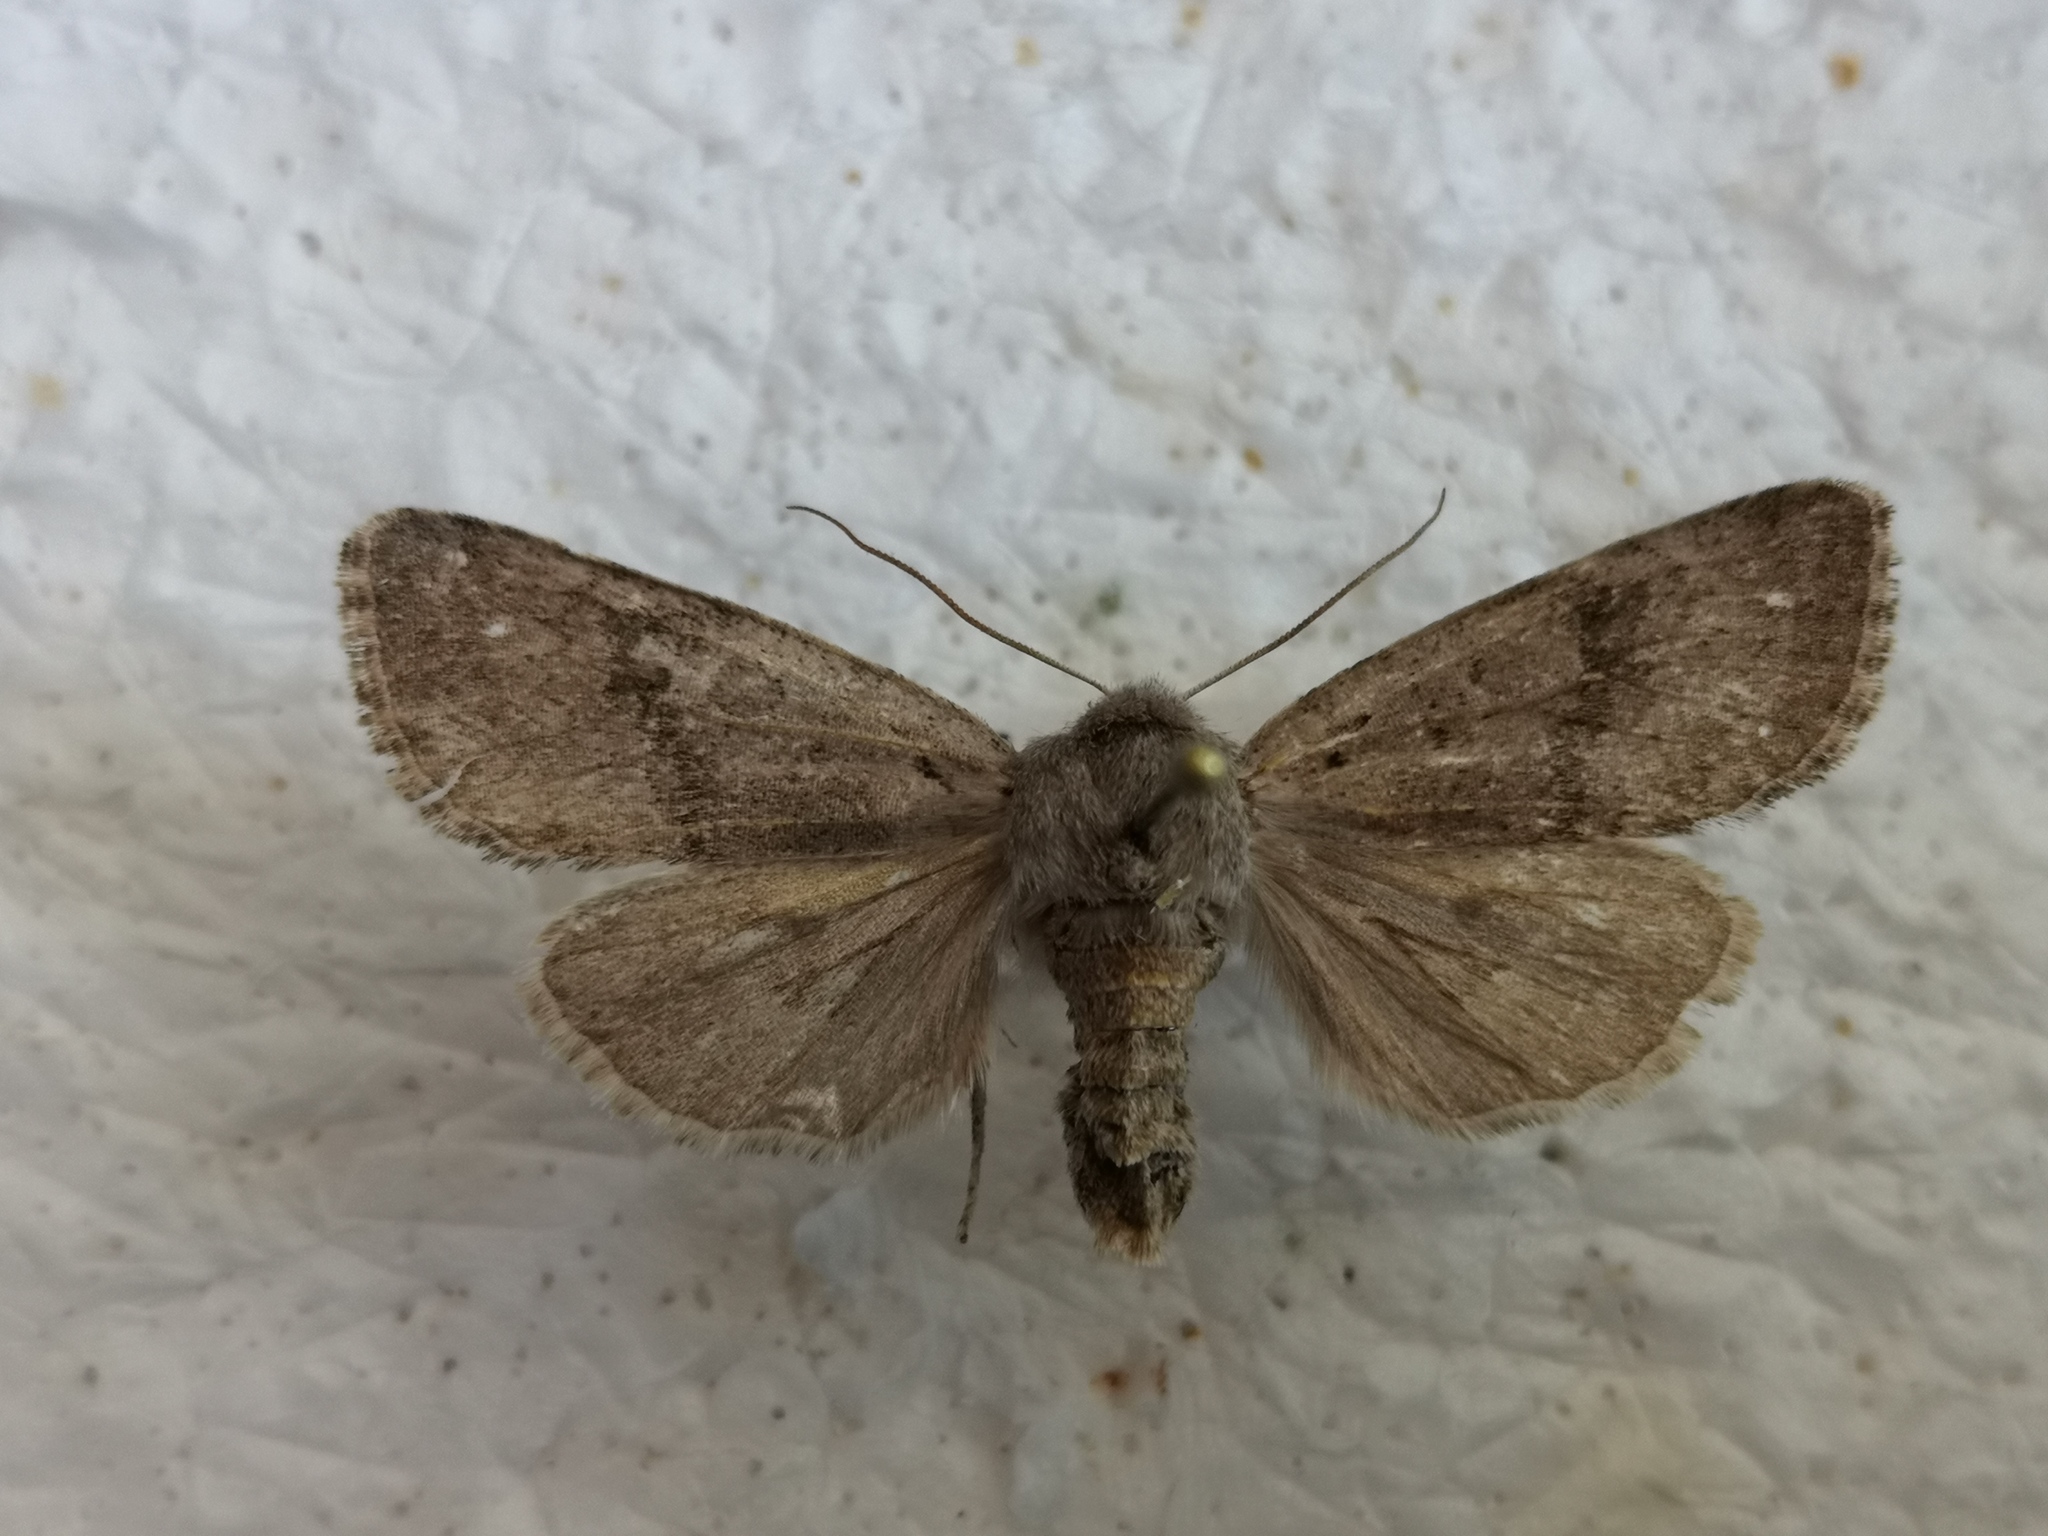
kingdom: Animalia
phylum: Arthropoda
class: Insecta
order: Lepidoptera
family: Noctuidae
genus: Orthosia
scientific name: Orthosia populeti
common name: Lead-coloured drab
